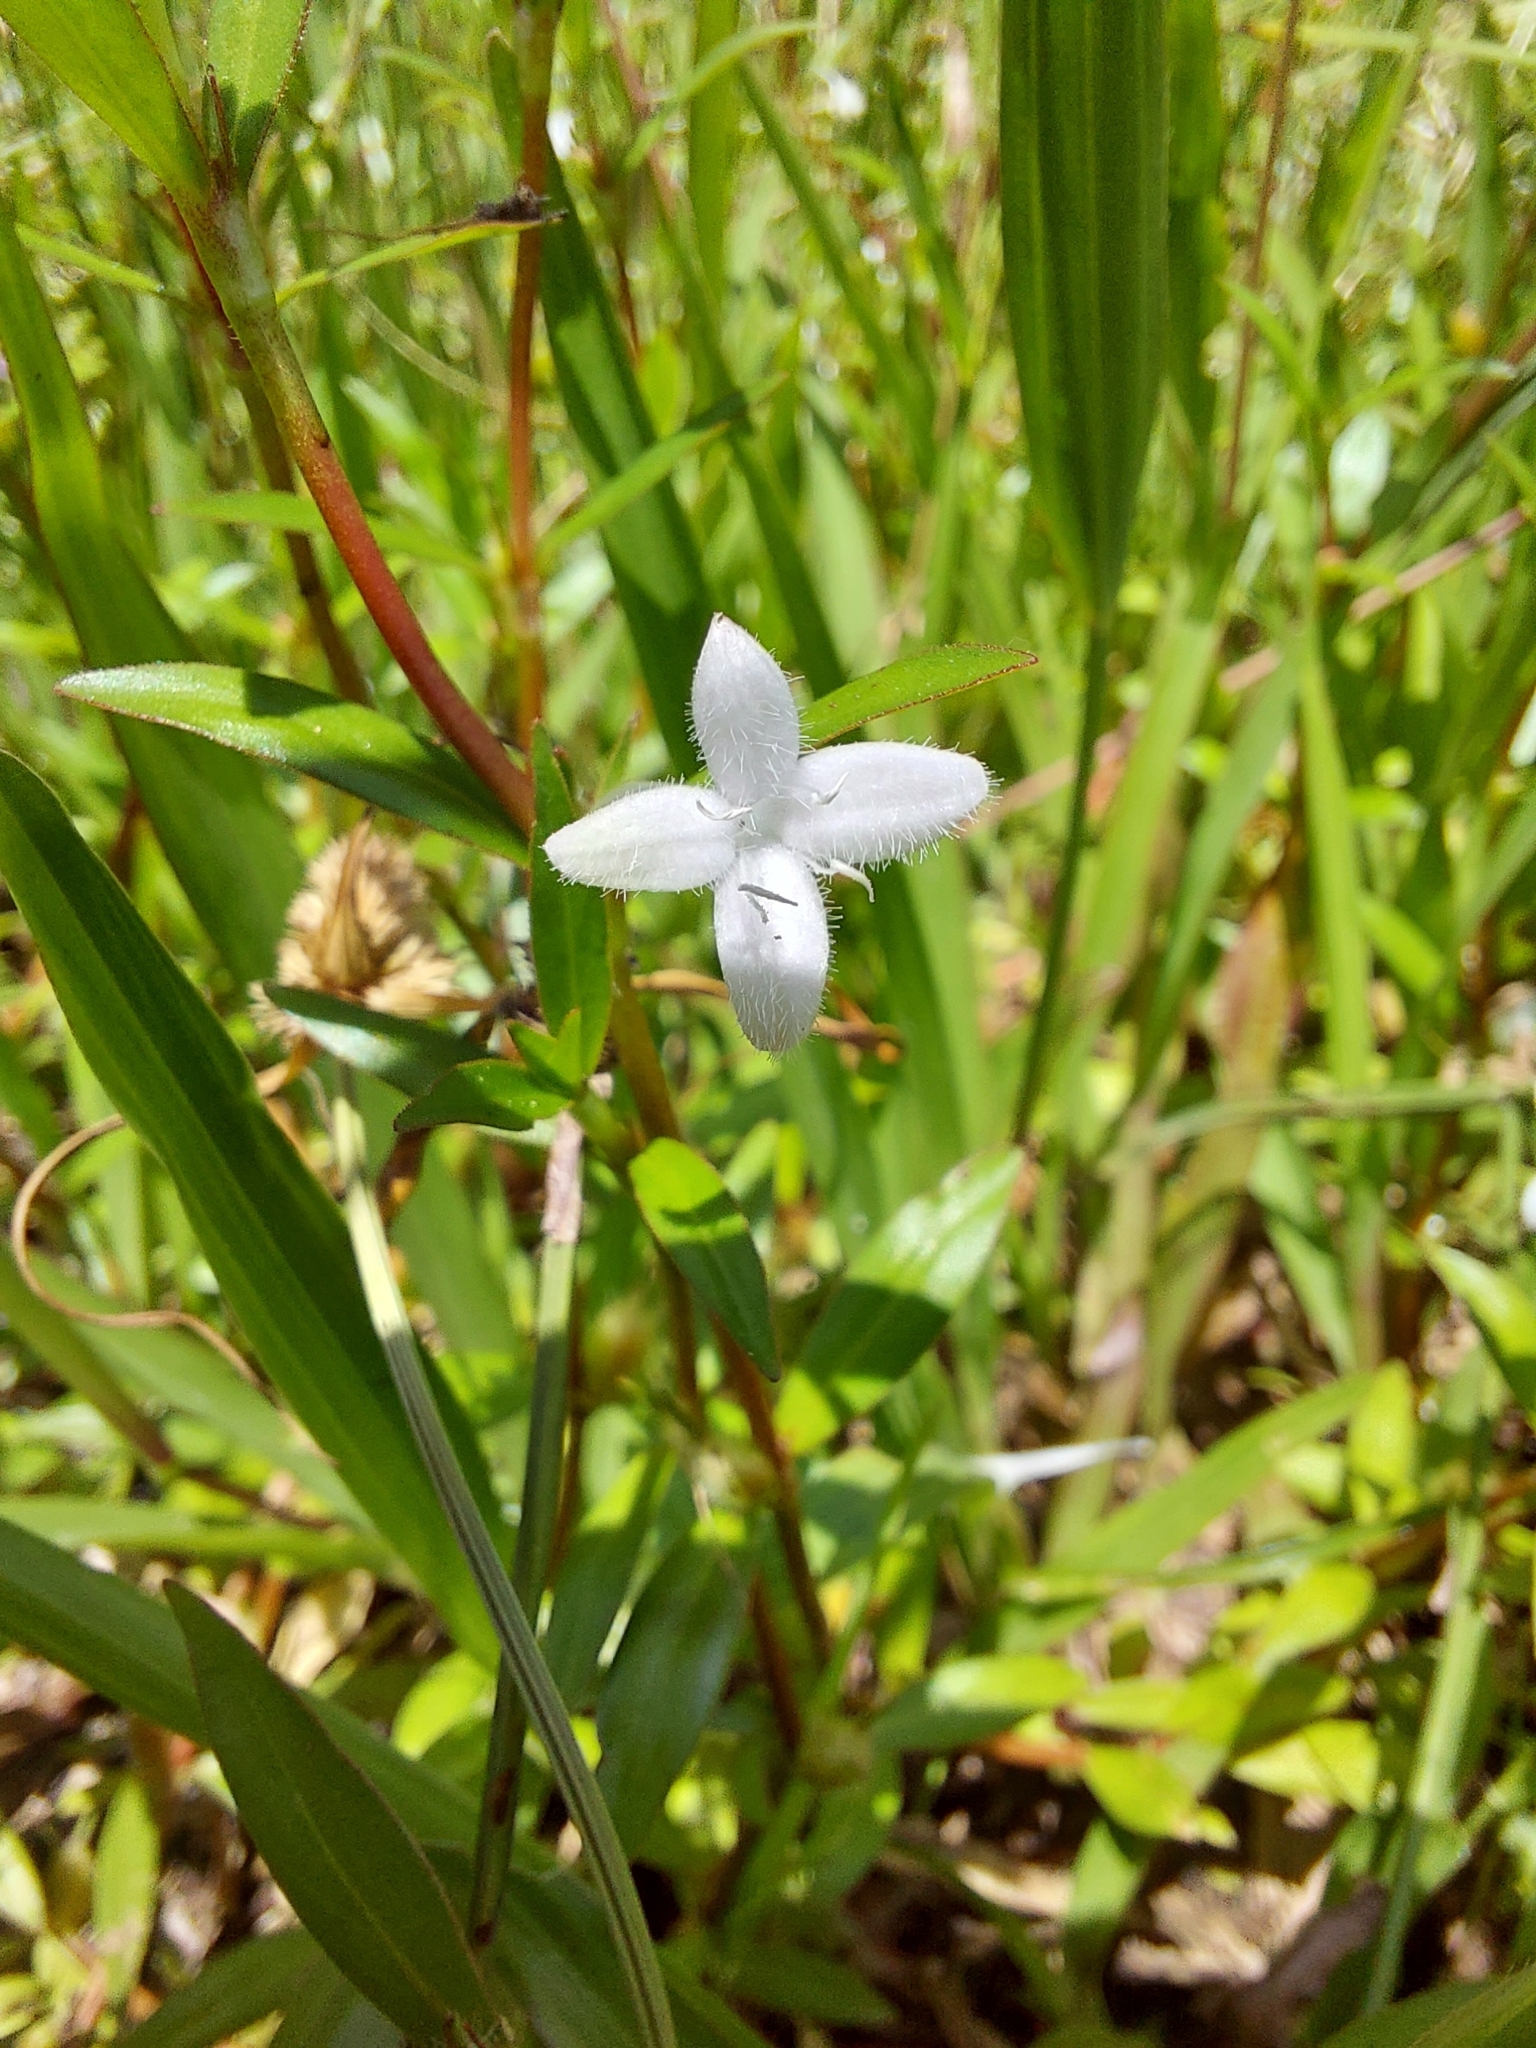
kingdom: Plantae
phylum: Tracheophyta
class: Magnoliopsida
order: Gentianales
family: Rubiaceae
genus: Diodia
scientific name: Diodia virginiana
